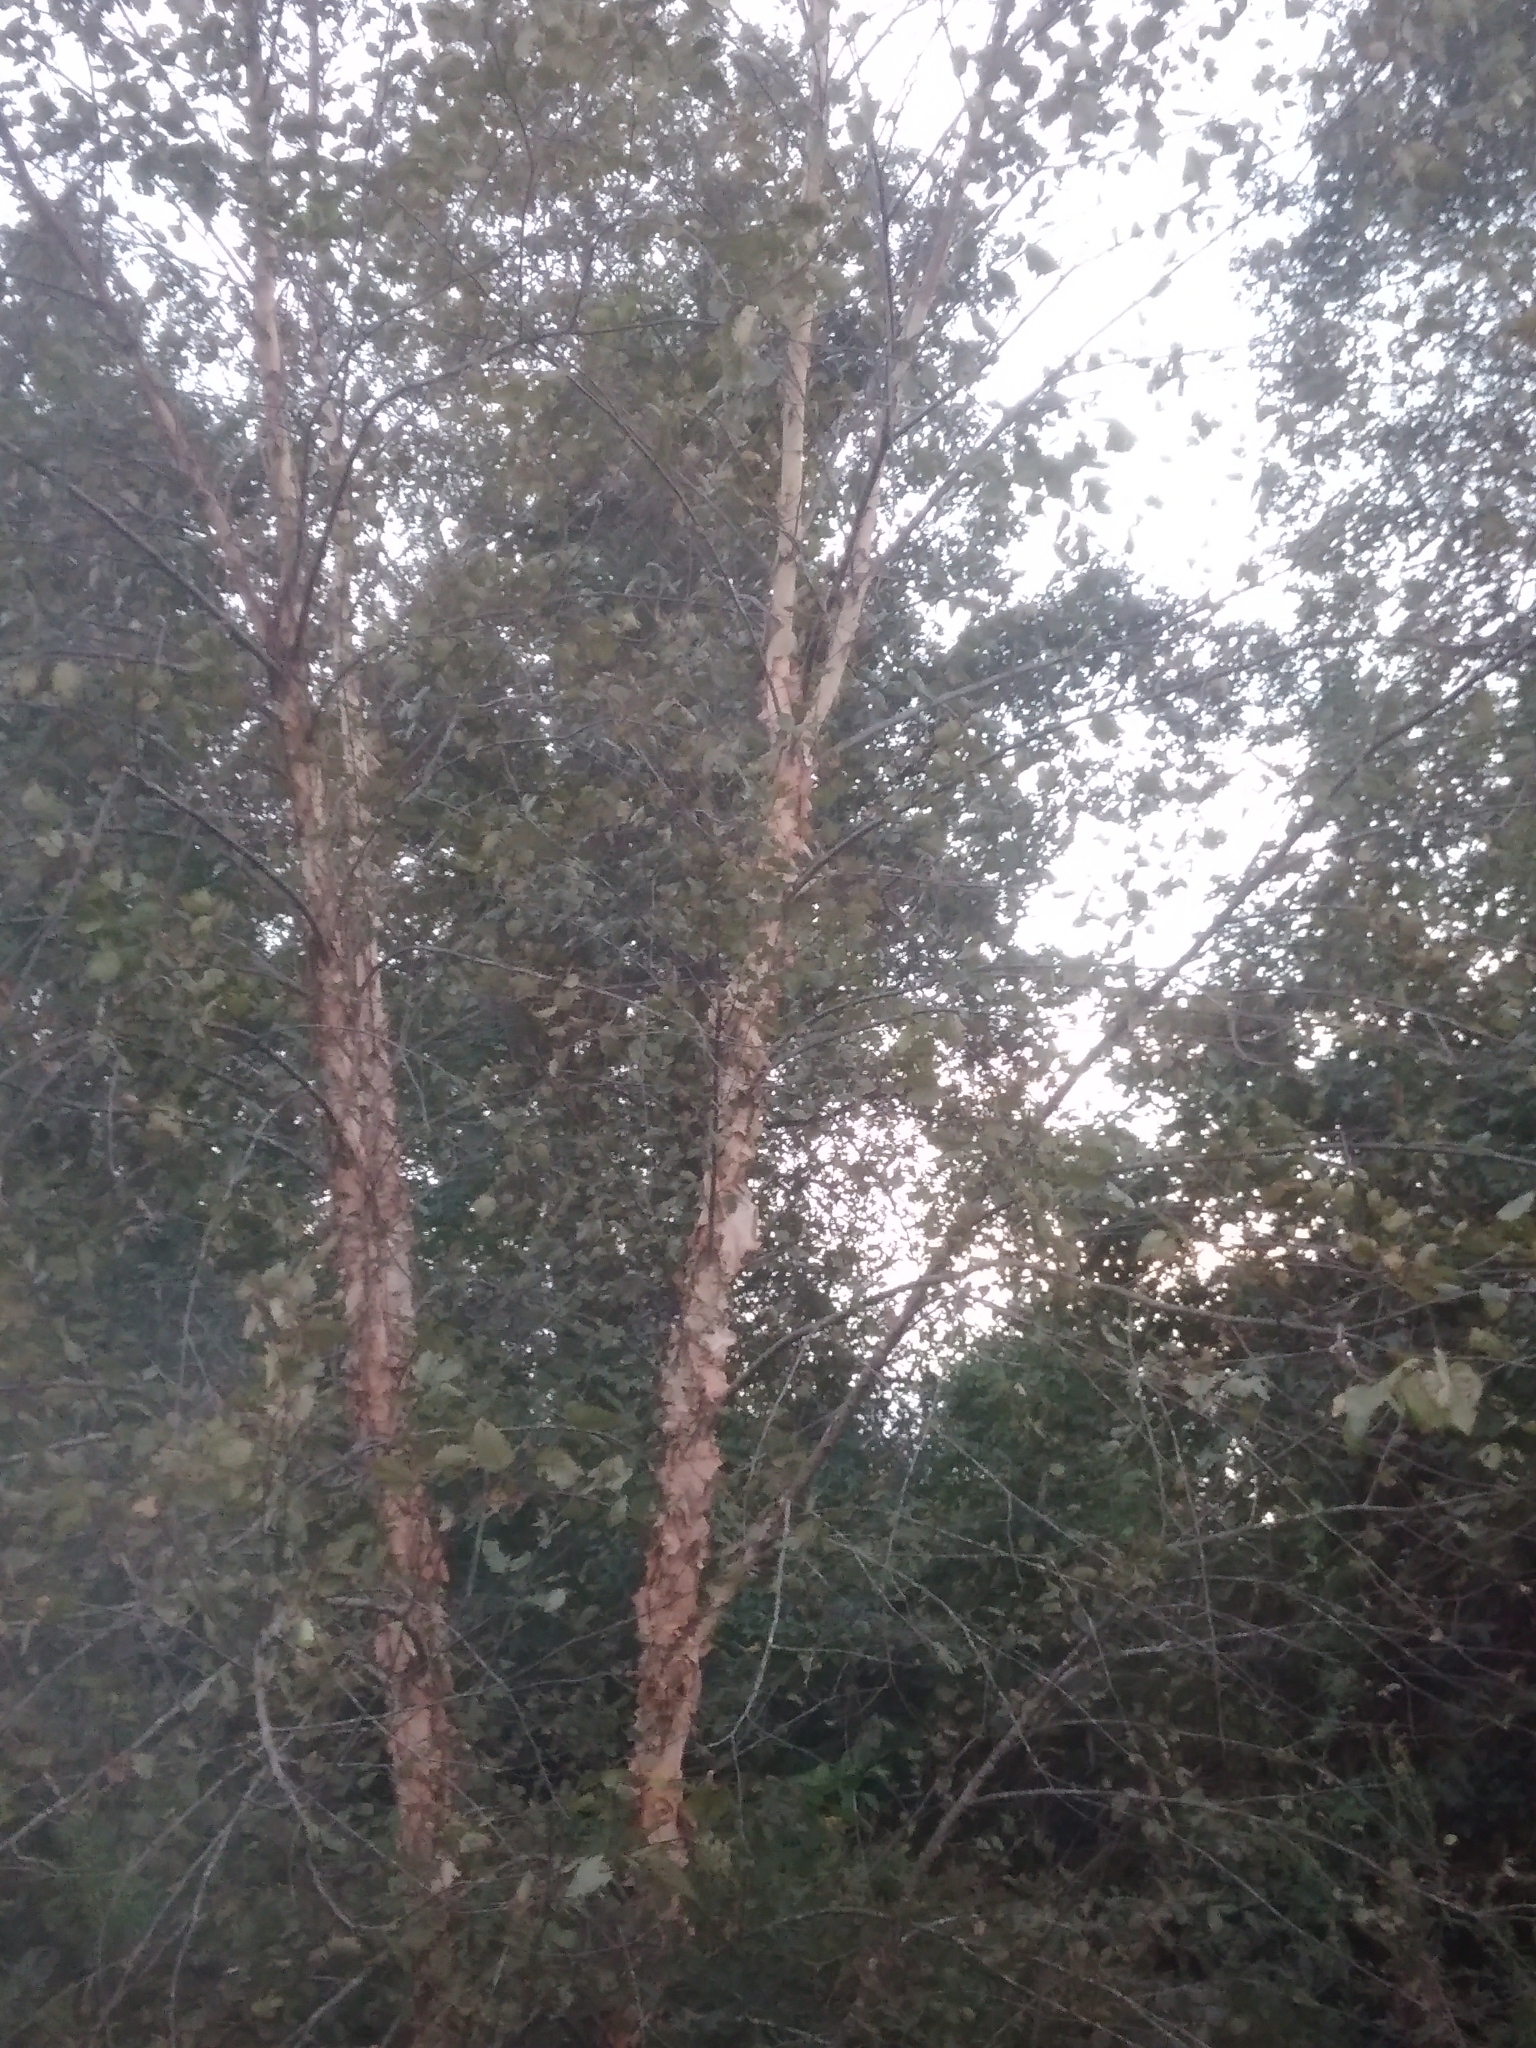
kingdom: Plantae
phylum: Tracheophyta
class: Magnoliopsida
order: Fagales
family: Betulaceae
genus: Betula
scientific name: Betula nigra
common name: Black birch
